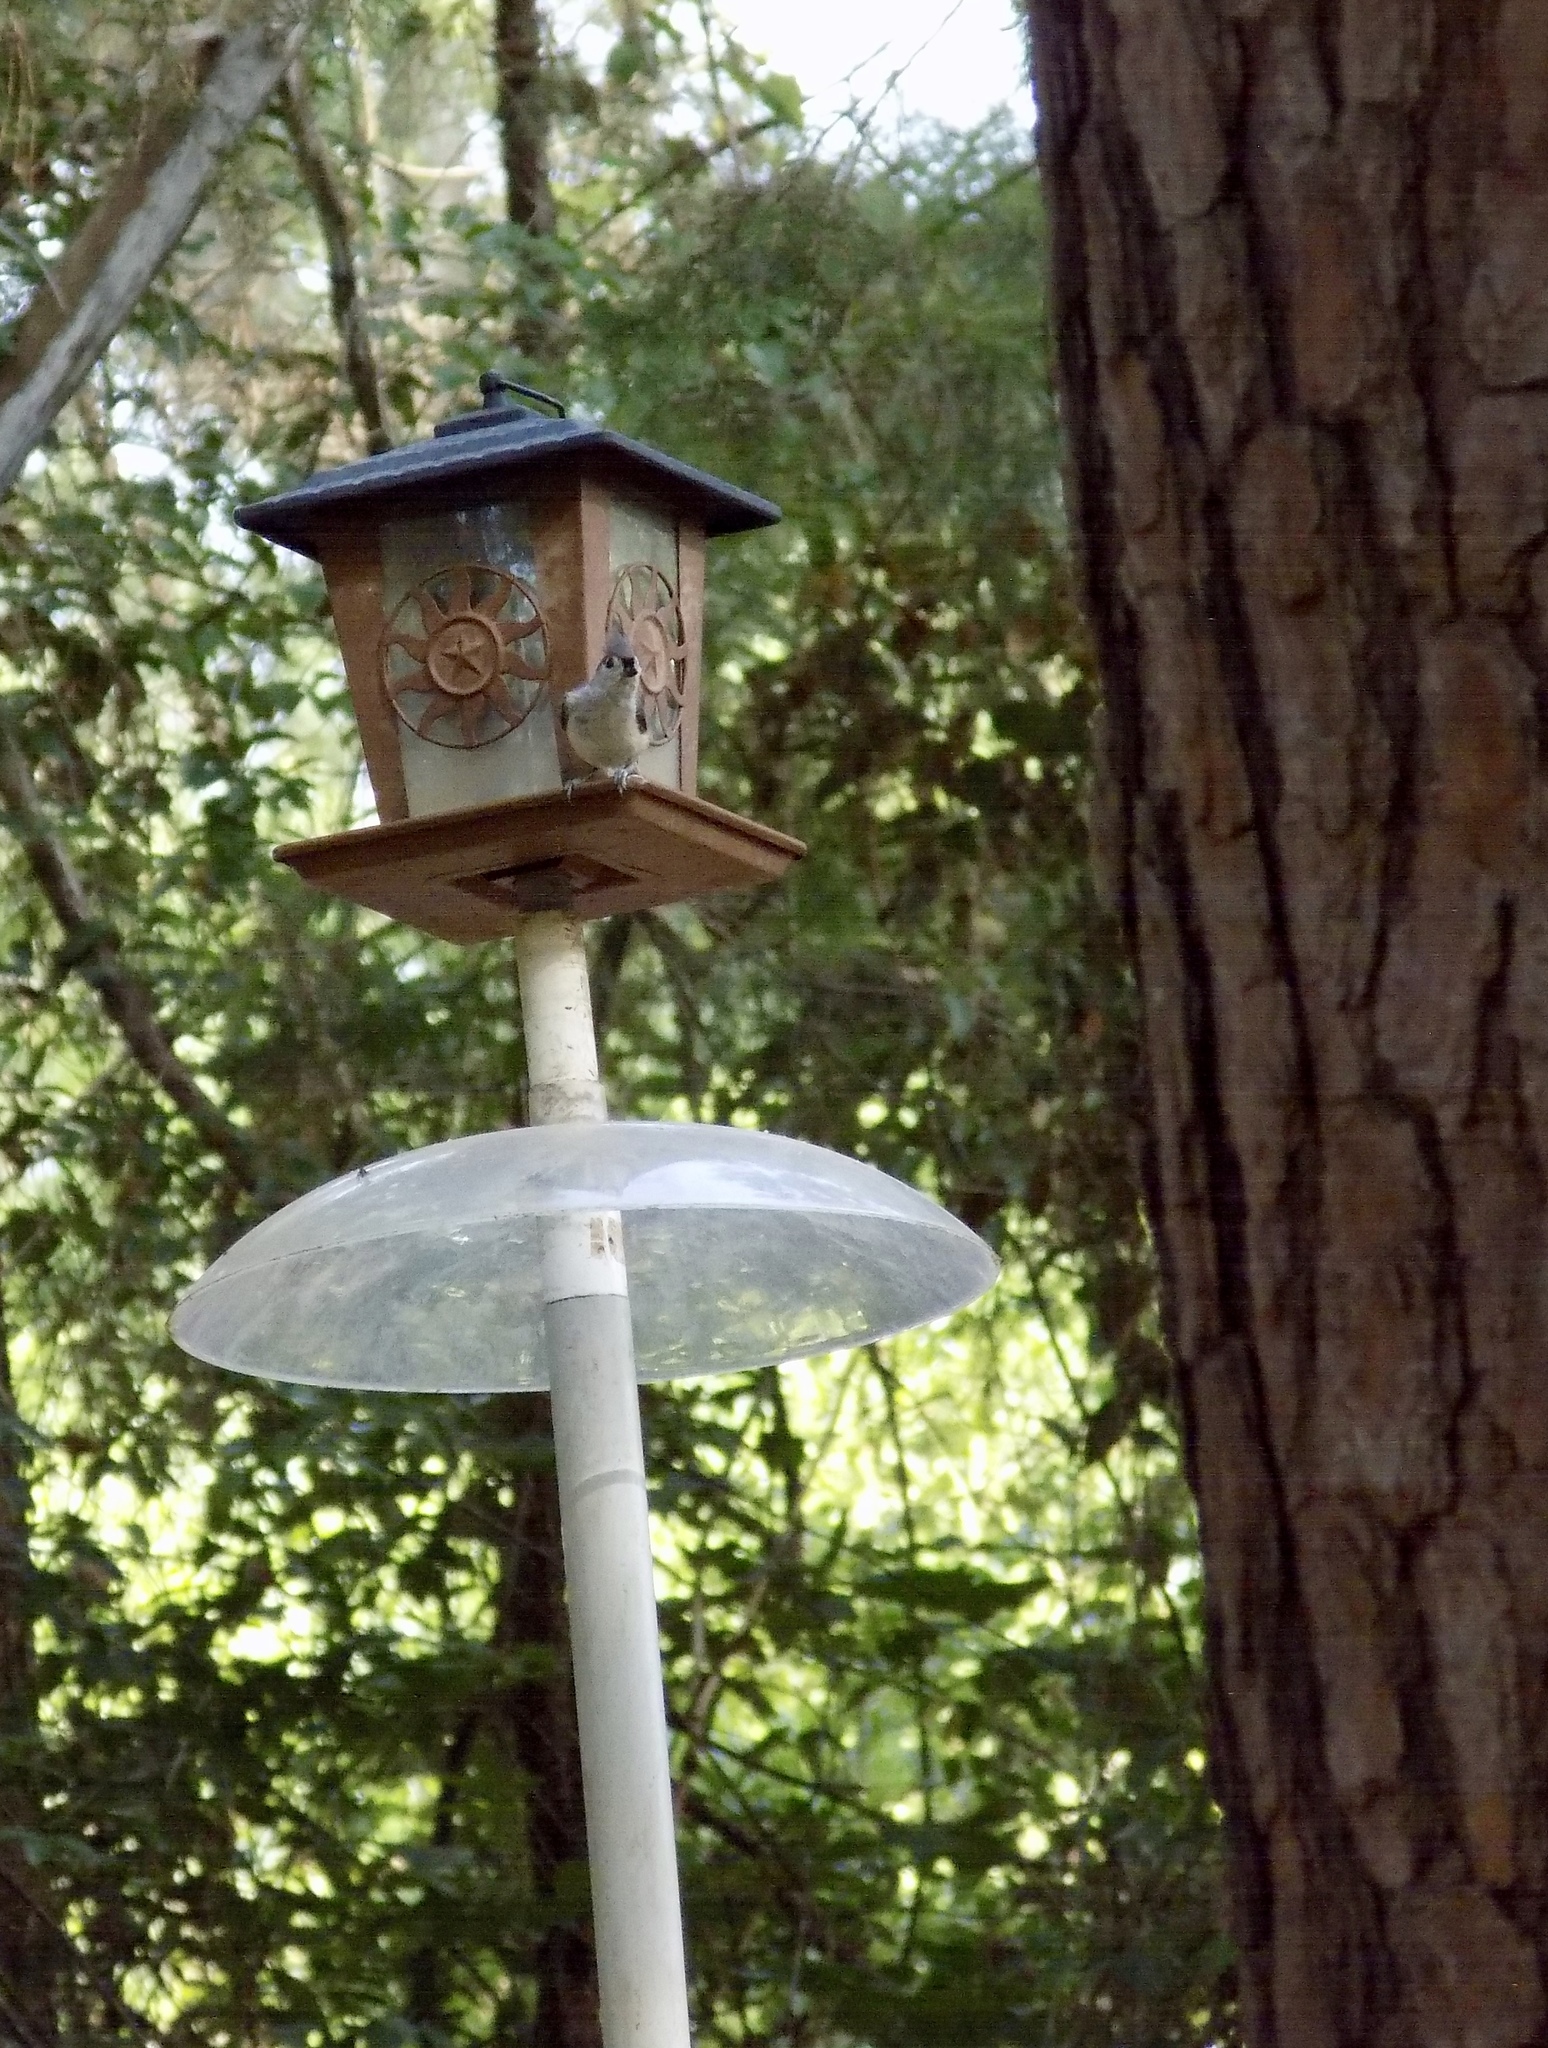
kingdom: Animalia
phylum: Chordata
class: Aves
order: Passeriformes
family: Paridae
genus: Baeolophus
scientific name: Baeolophus bicolor
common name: Tufted titmouse
